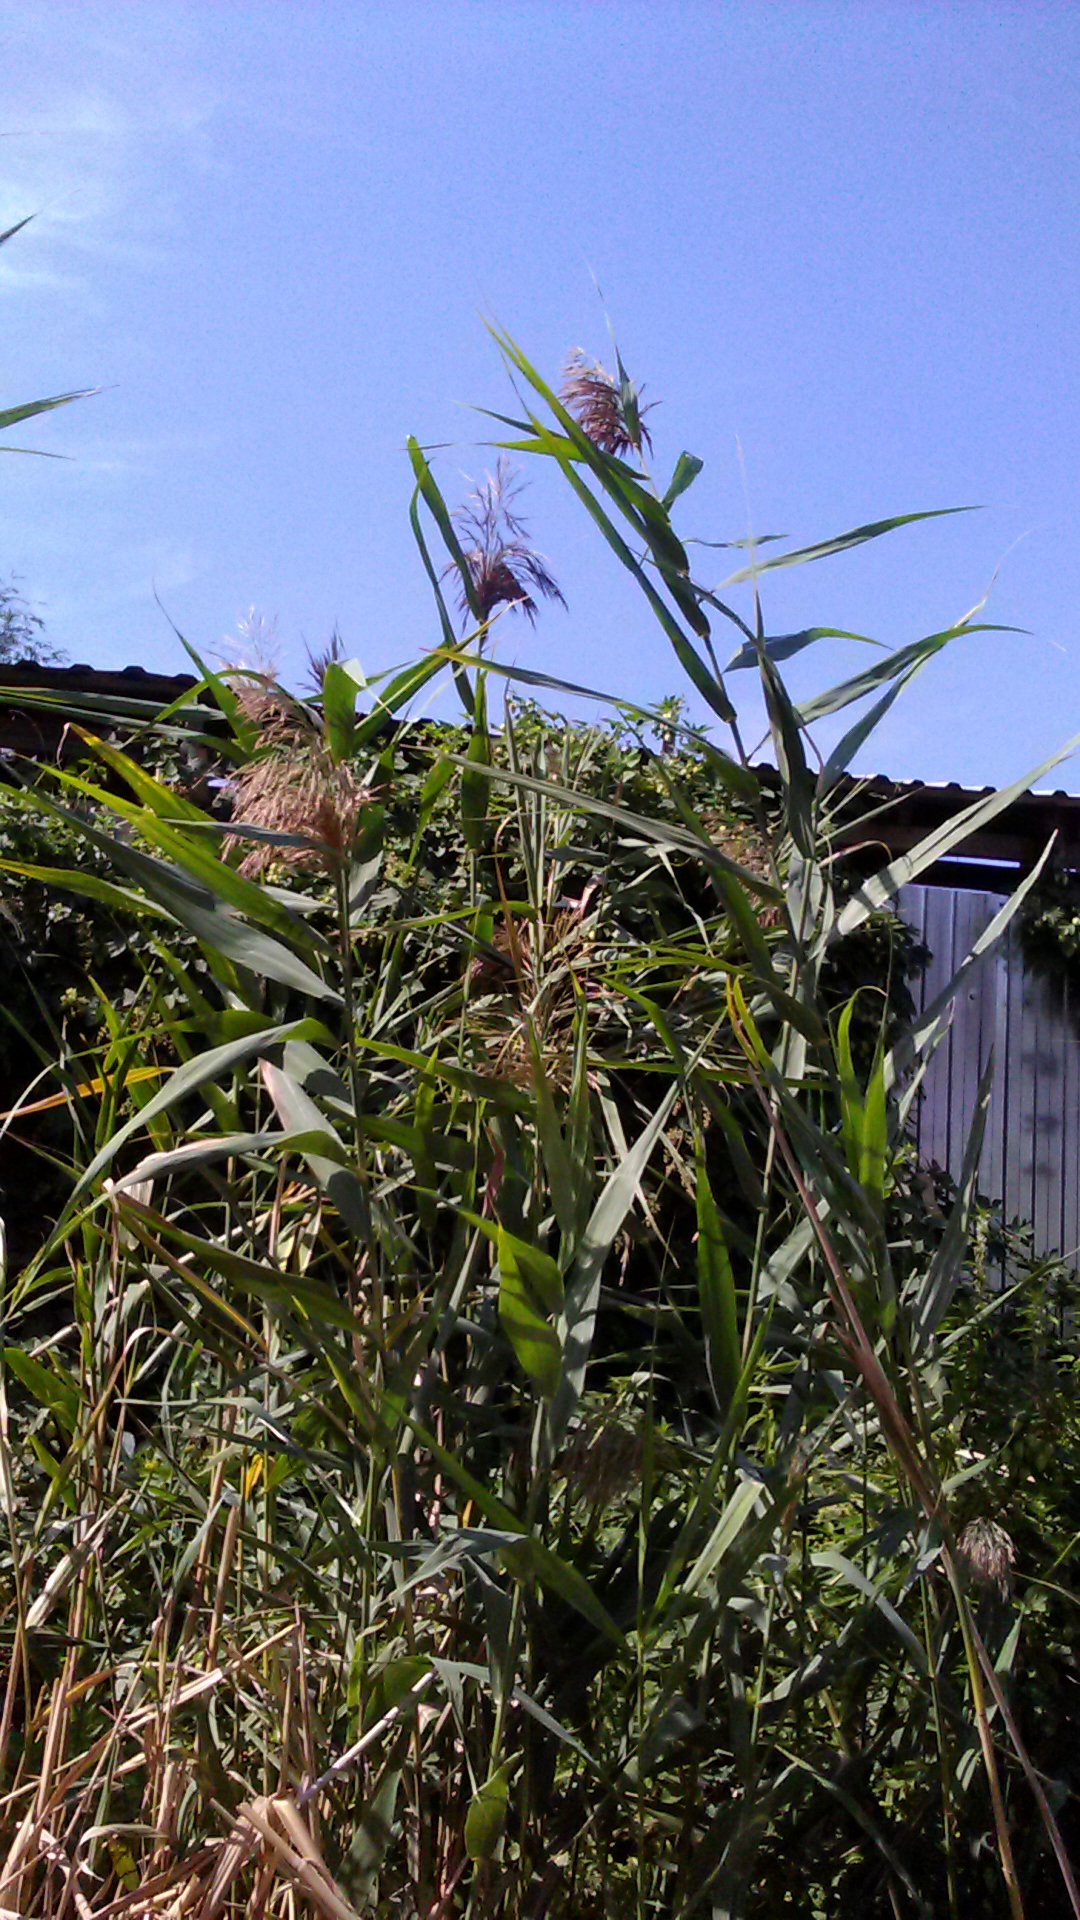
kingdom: Plantae
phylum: Tracheophyta
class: Liliopsida
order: Poales
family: Poaceae
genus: Phragmites
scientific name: Phragmites australis
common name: Common reed
